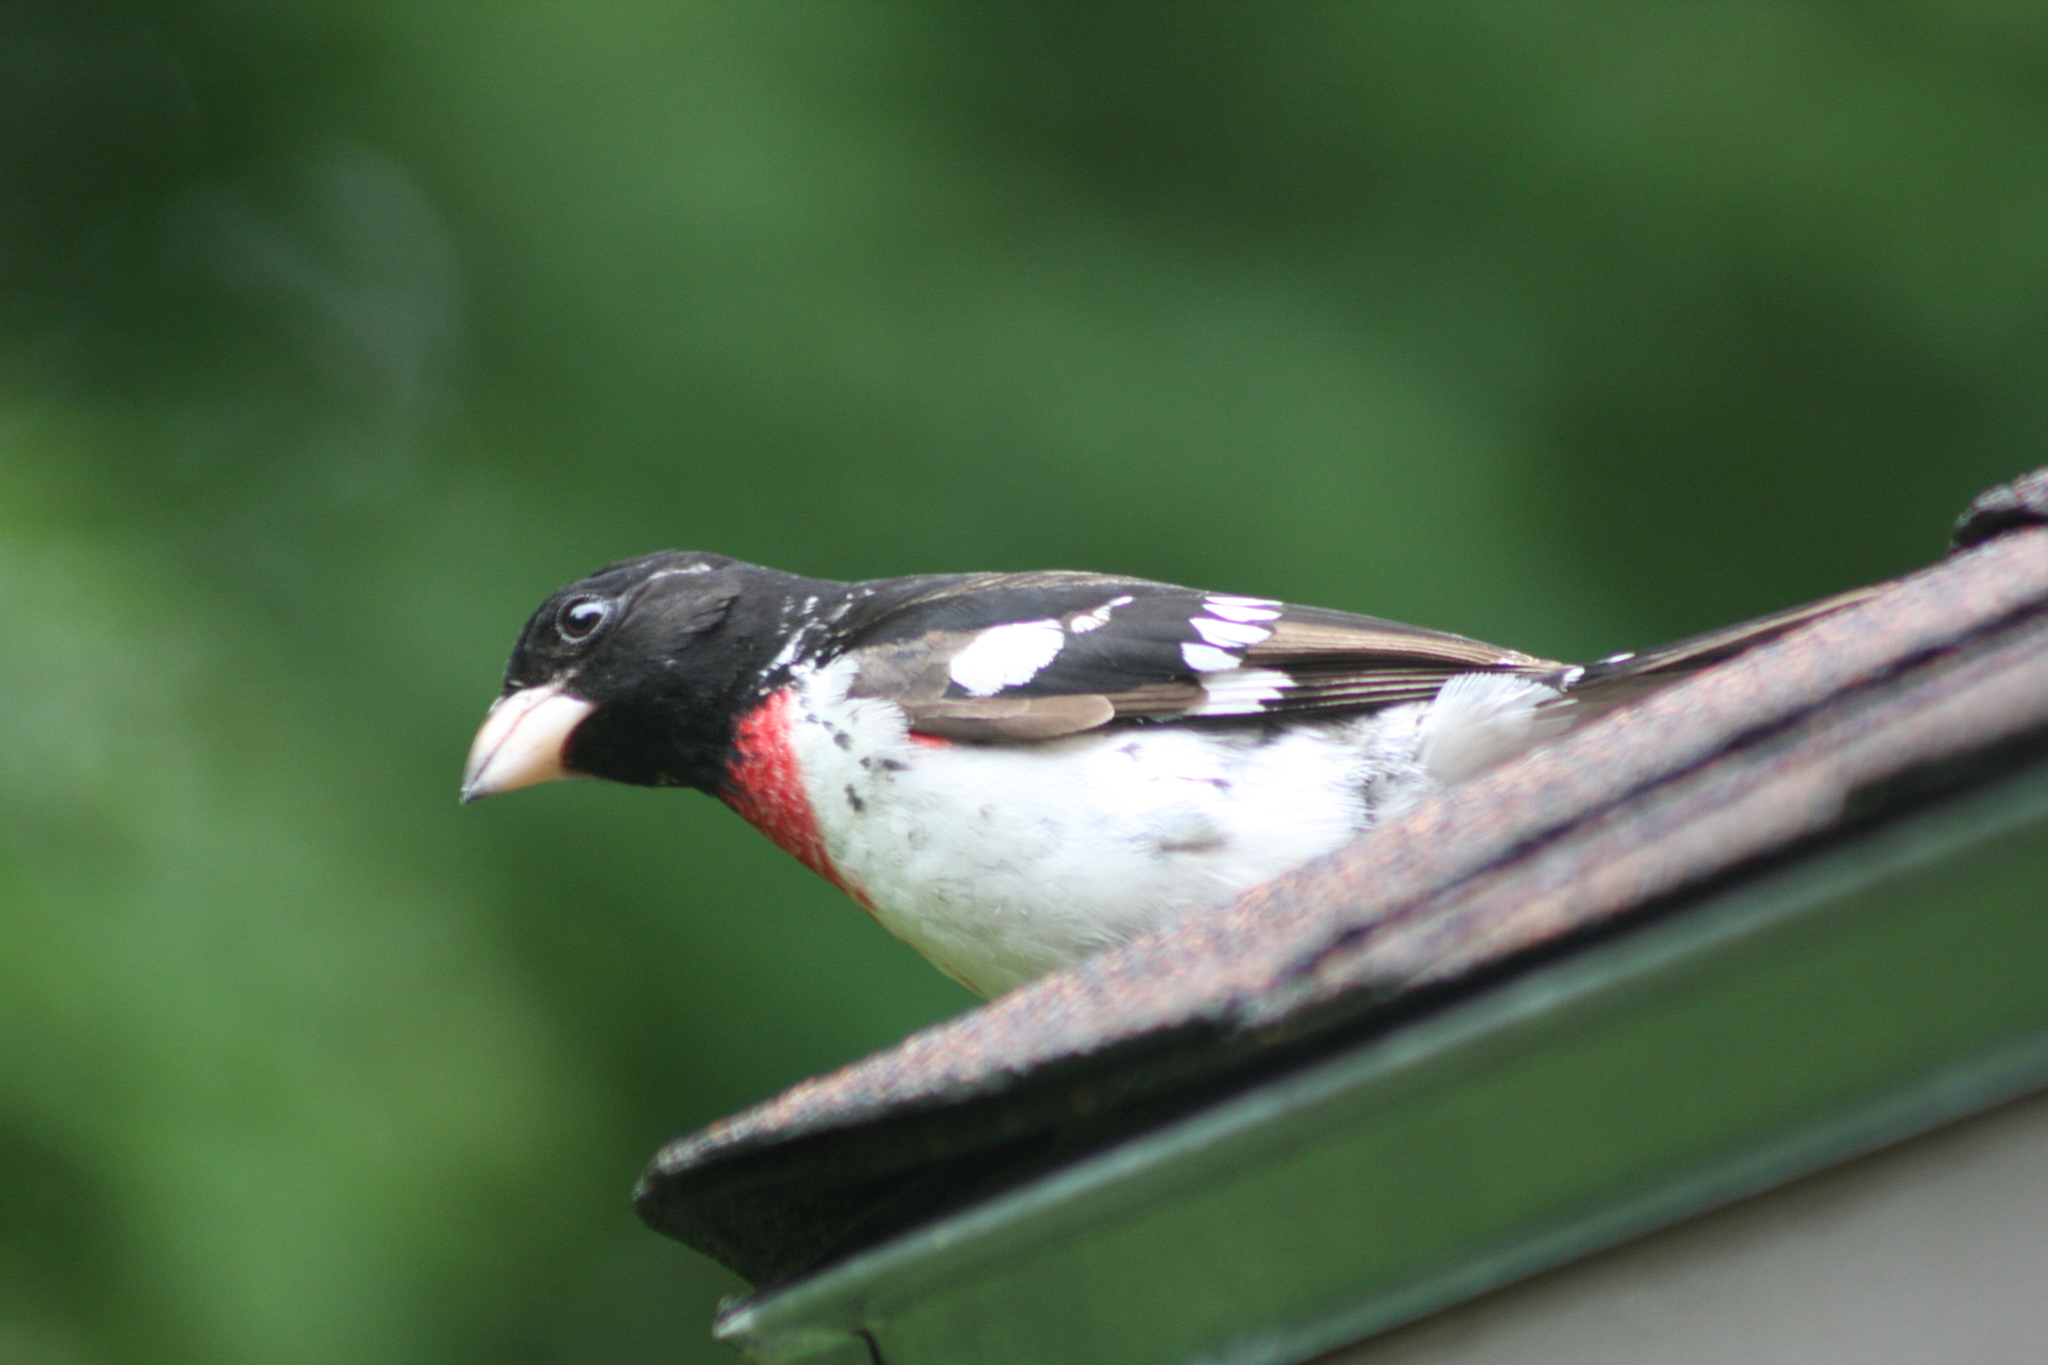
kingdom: Animalia
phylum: Chordata
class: Aves
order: Passeriformes
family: Cardinalidae
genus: Pheucticus
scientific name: Pheucticus ludovicianus
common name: Rose-breasted grosbeak
